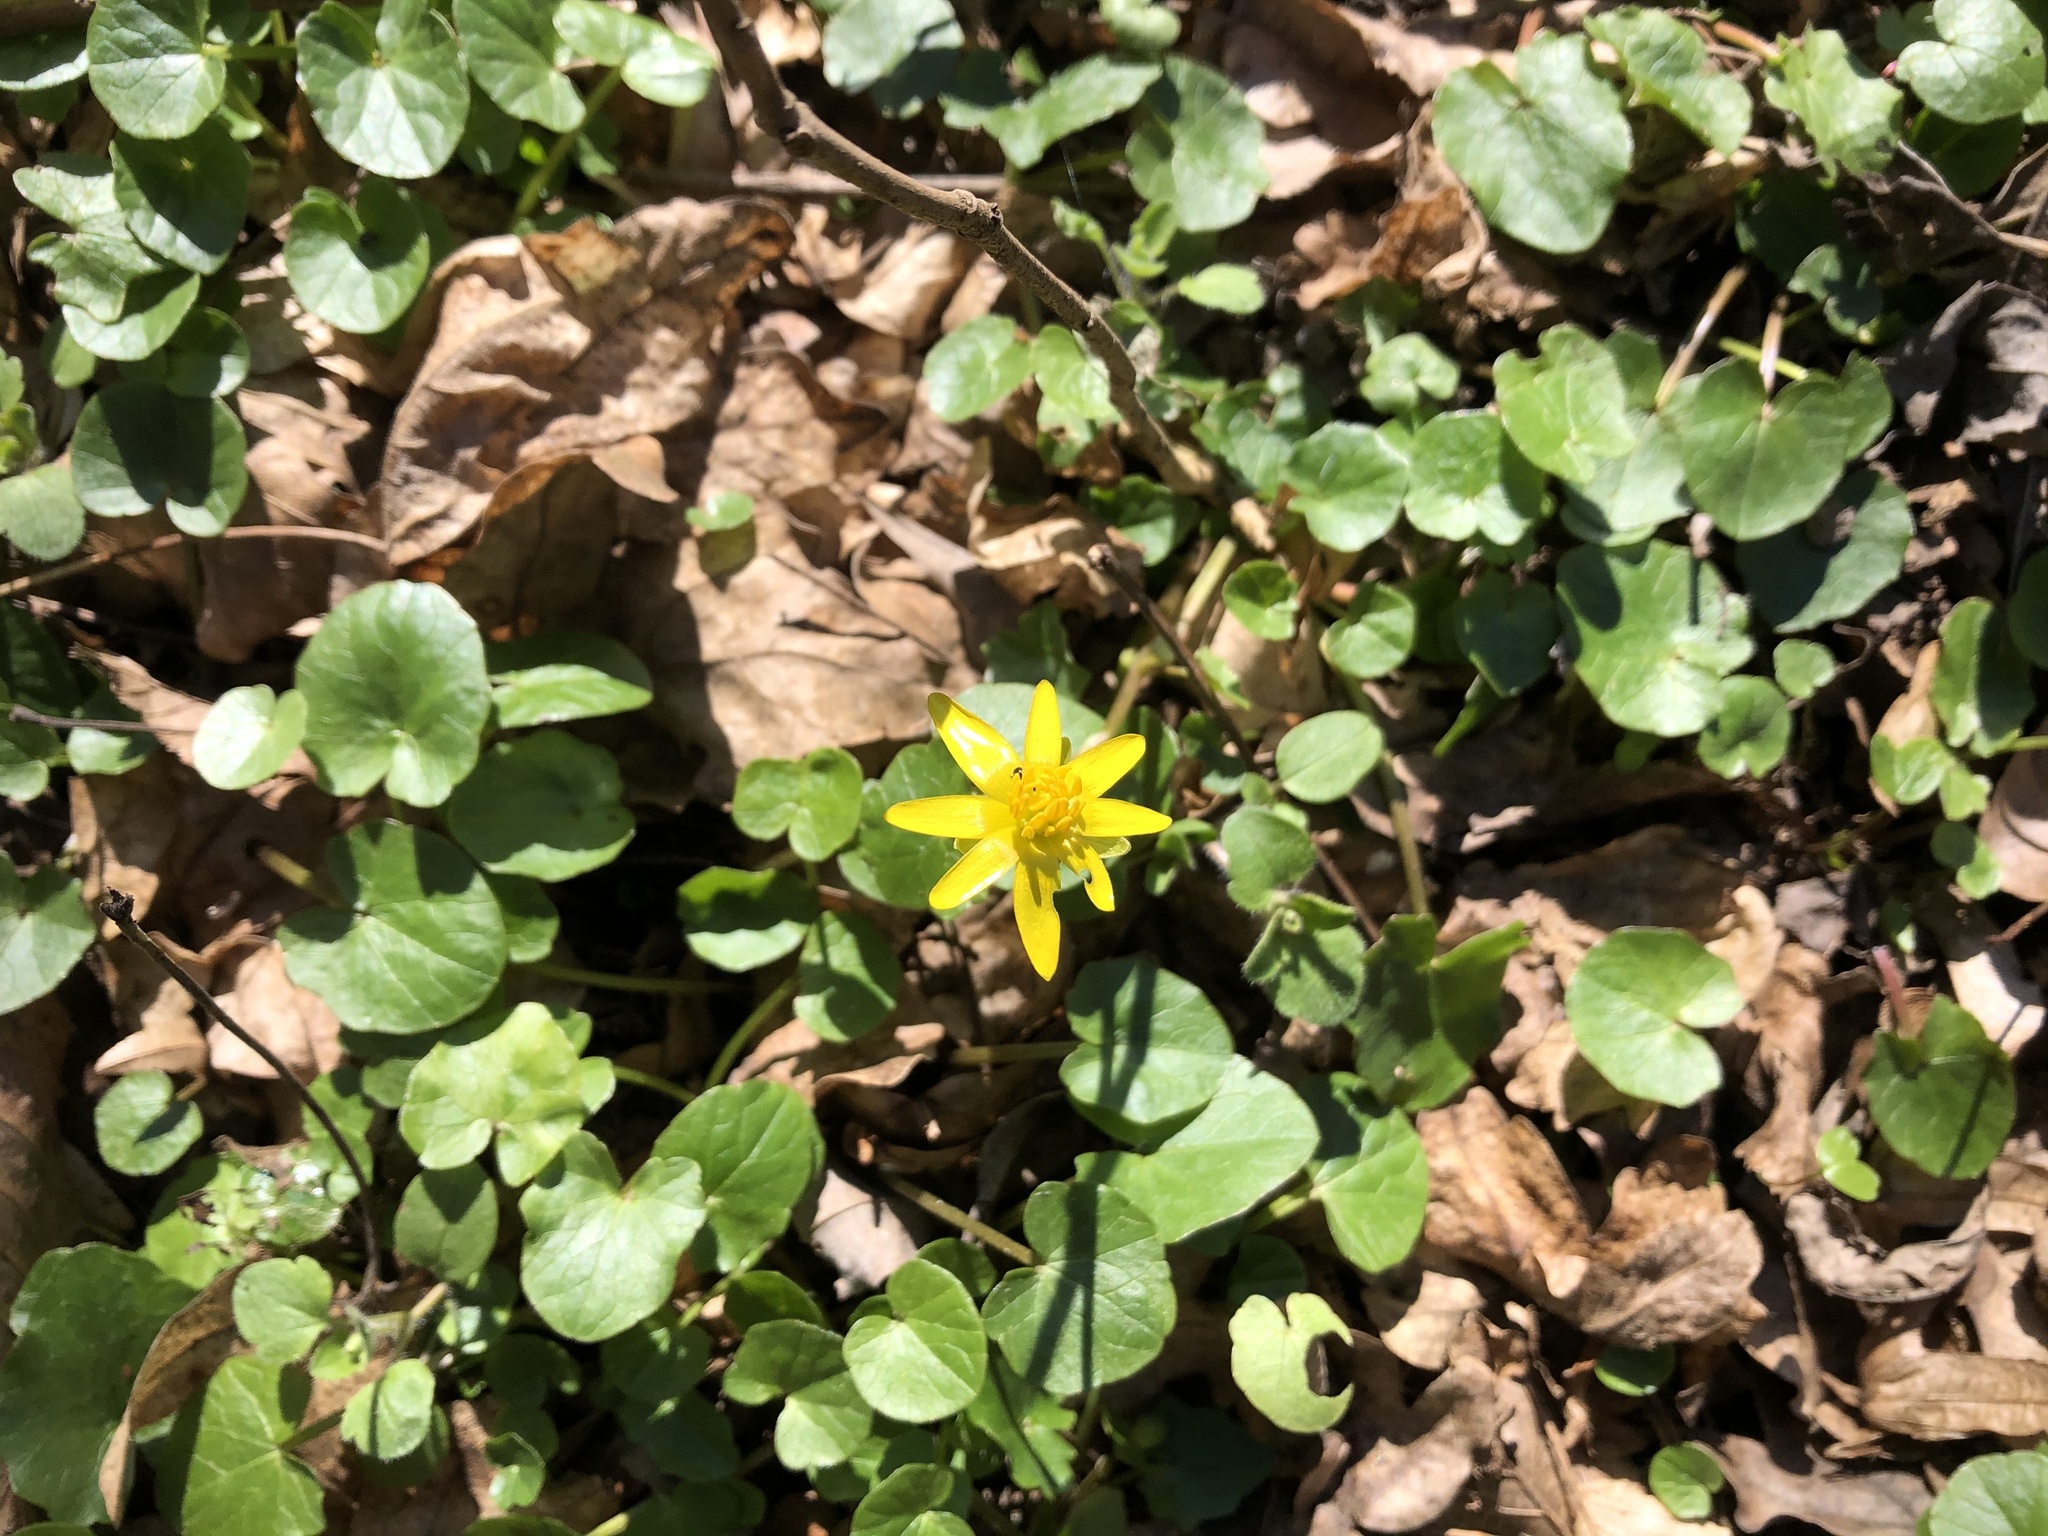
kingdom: Plantae
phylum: Tracheophyta
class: Magnoliopsida
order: Ranunculales
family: Ranunculaceae
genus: Ficaria
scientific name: Ficaria verna
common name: Lesser celandine
